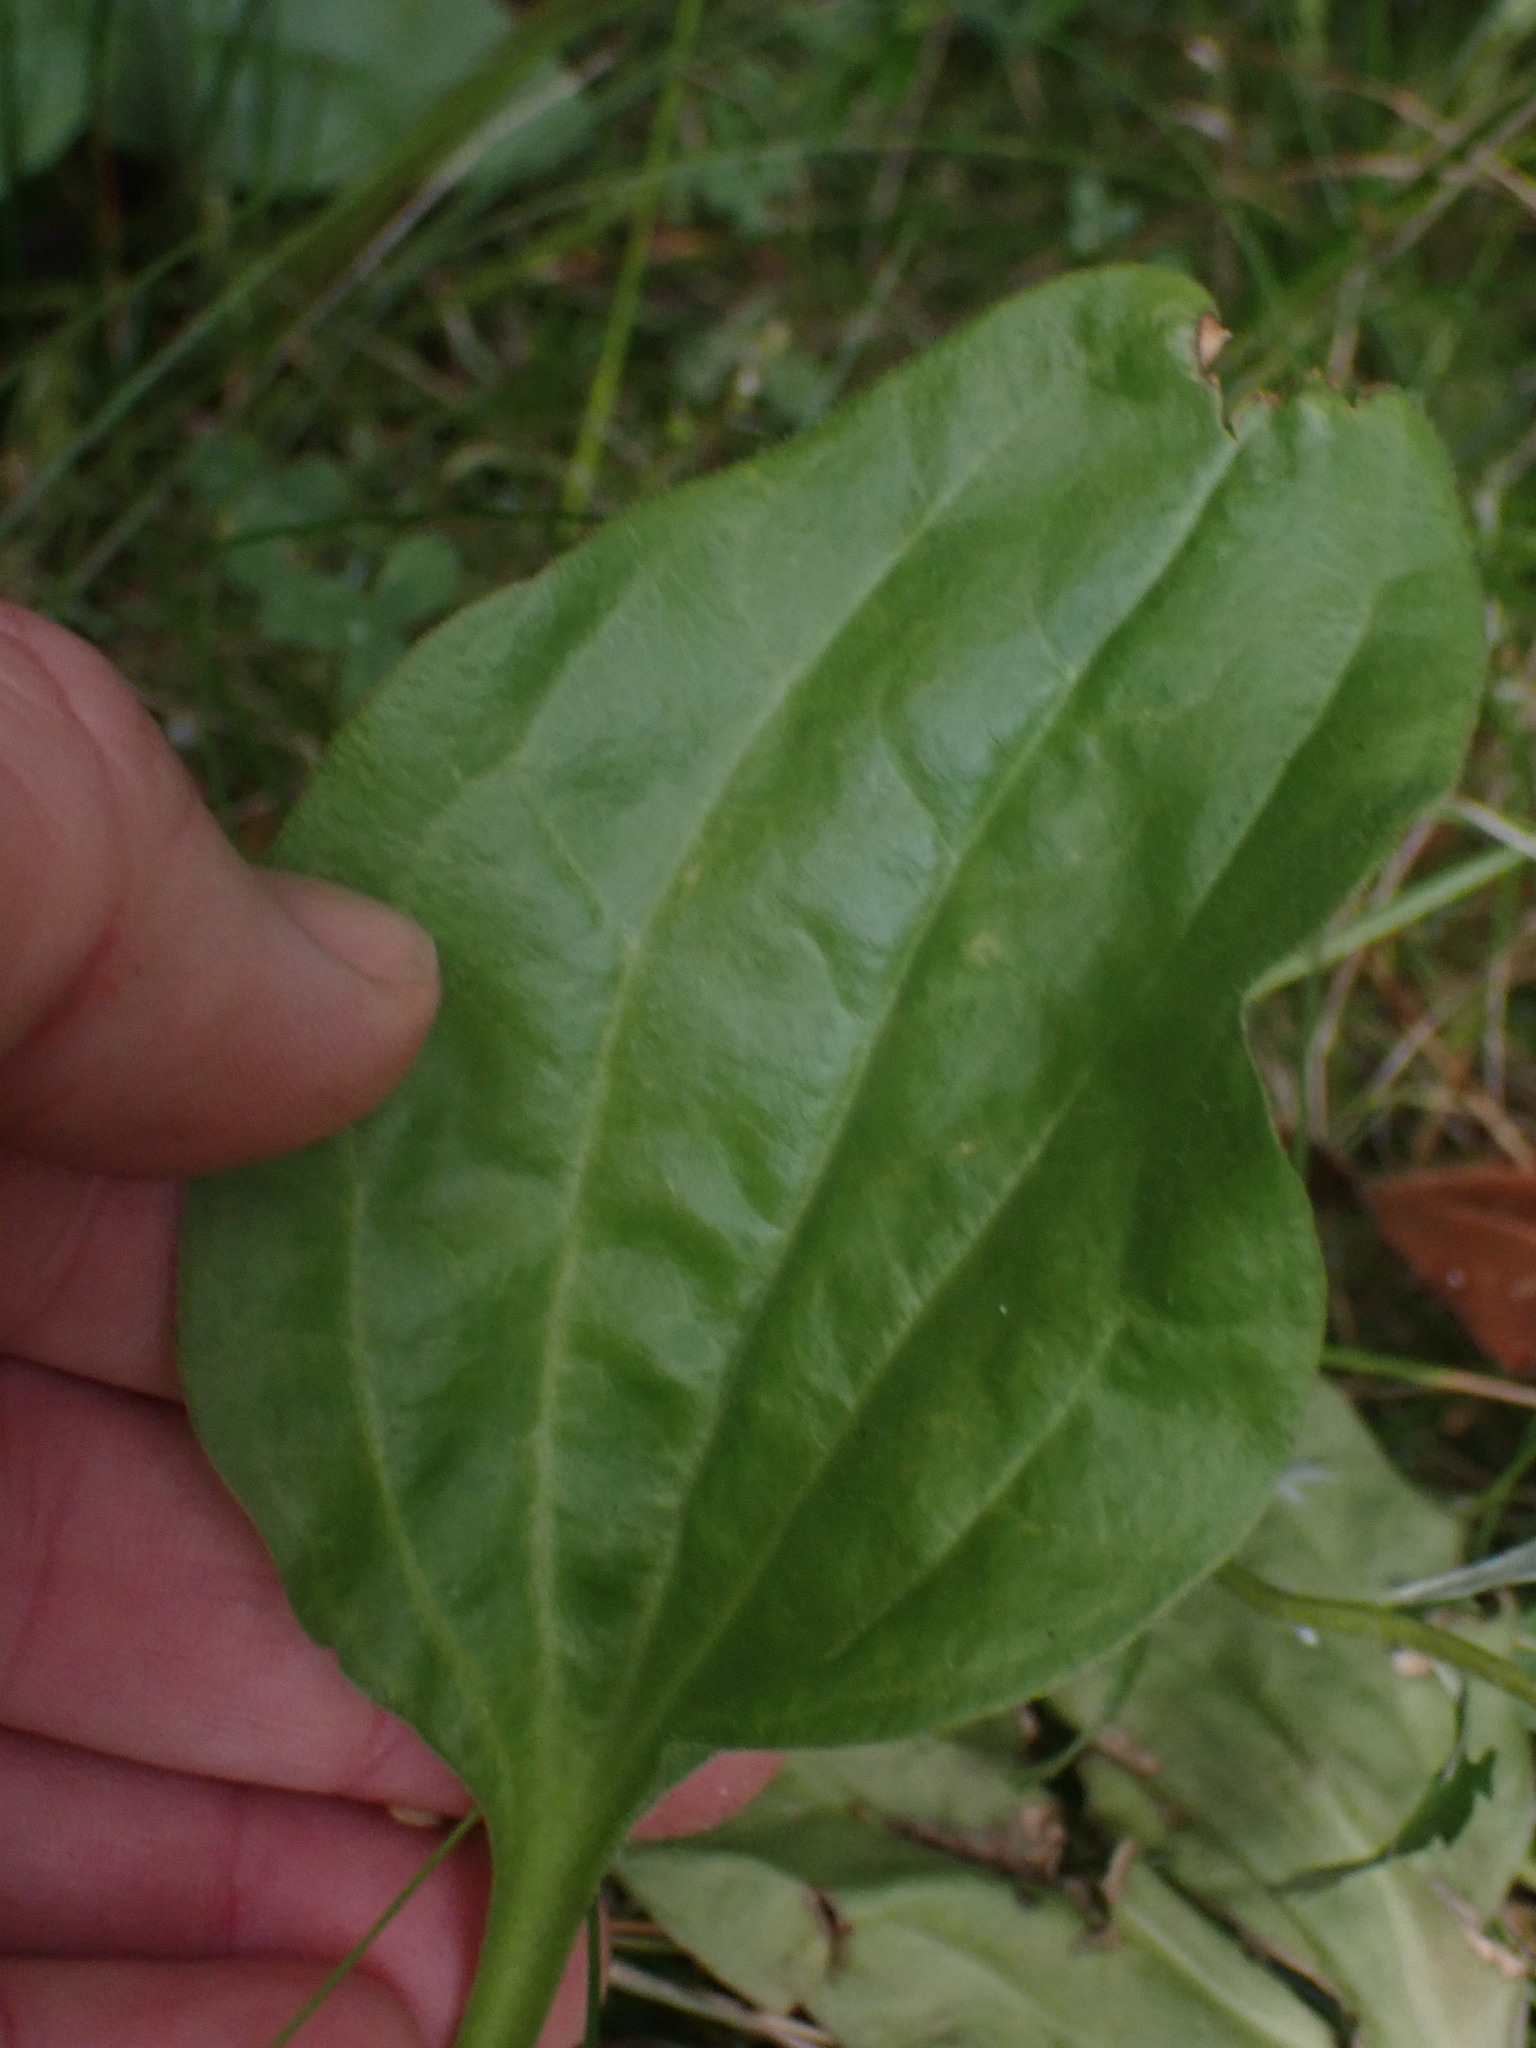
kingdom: Plantae
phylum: Tracheophyta
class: Magnoliopsida
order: Lamiales
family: Plantaginaceae
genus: Plantago
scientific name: Plantago major
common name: Common plantain
